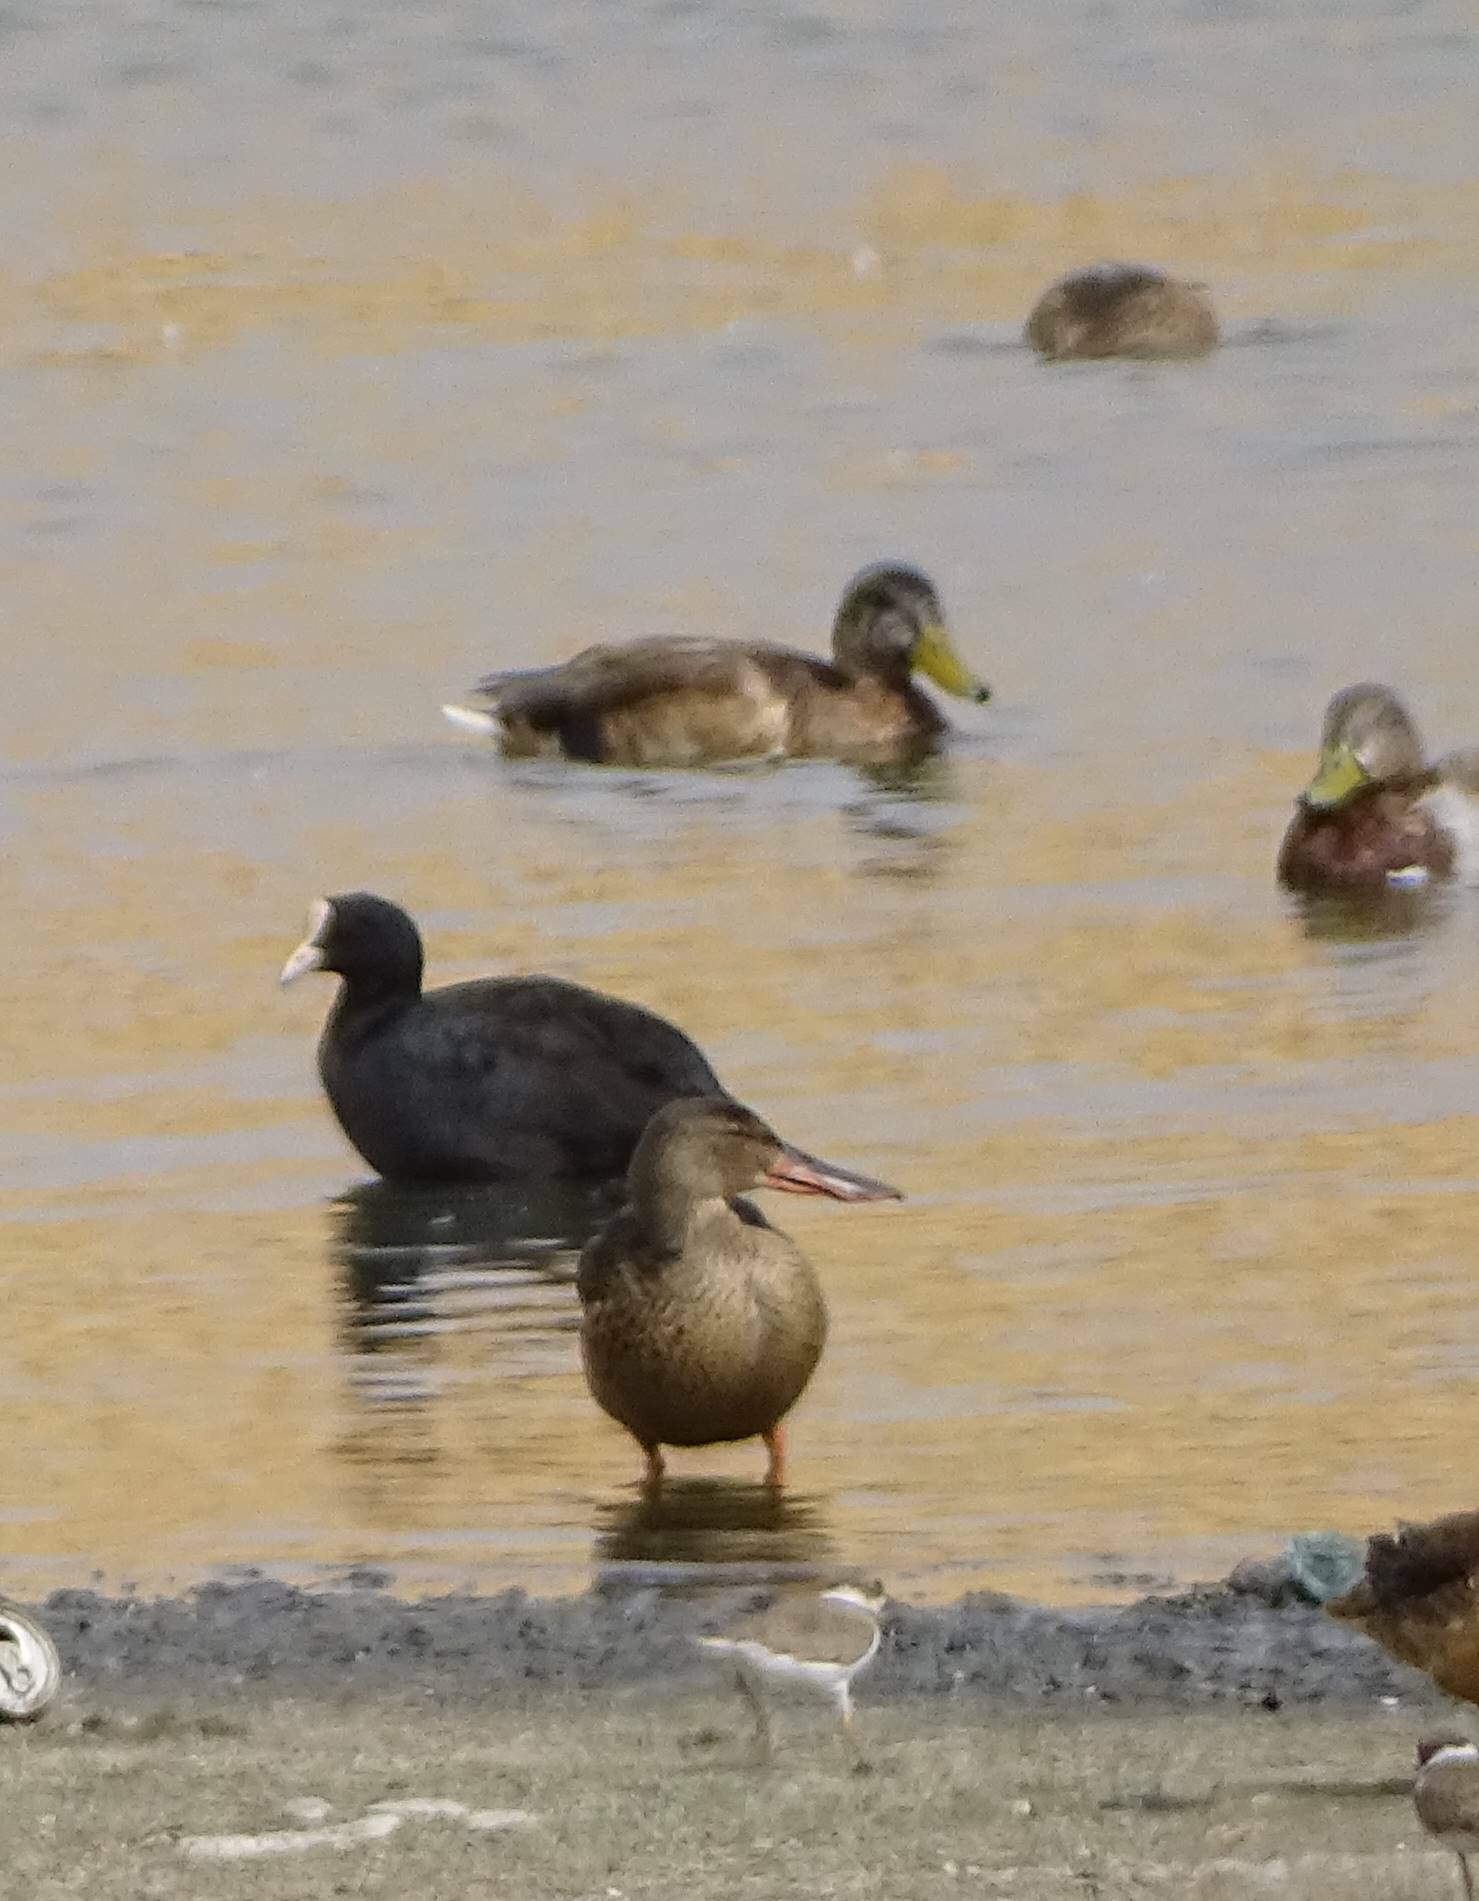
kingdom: Animalia
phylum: Chordata
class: Aves
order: Anseriformes
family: Anatidae
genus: Anas
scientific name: Anas platyrhynchos
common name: Mallard
